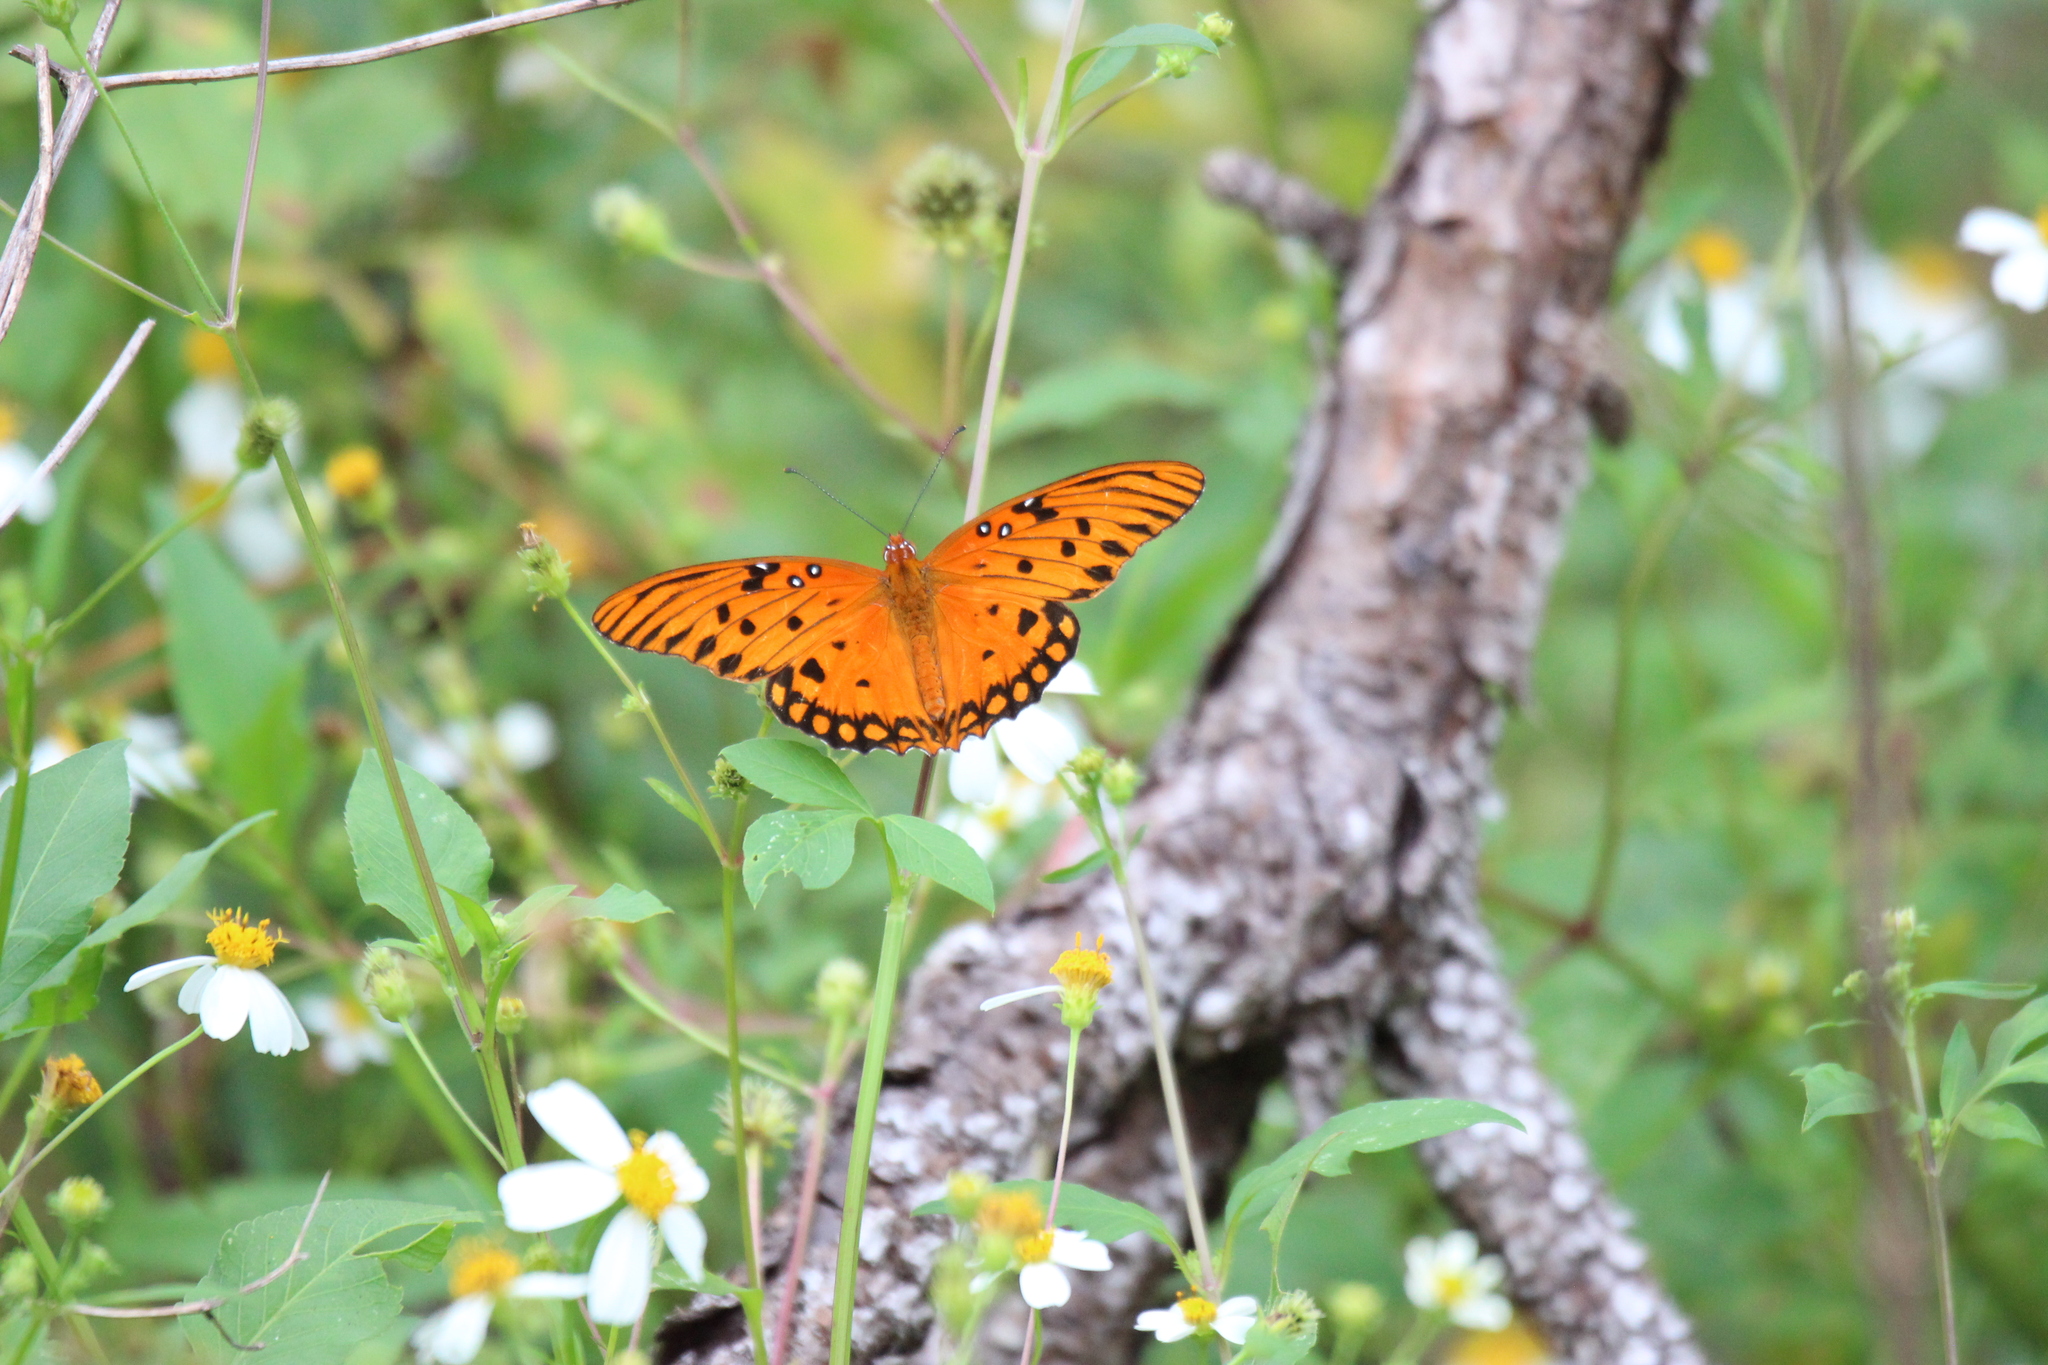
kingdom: Animalia
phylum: Arthropoda
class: Insecta
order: Lepidoptera
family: Nymphalidae
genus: Dione
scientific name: Dione vanillae
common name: Gulf fritillary
